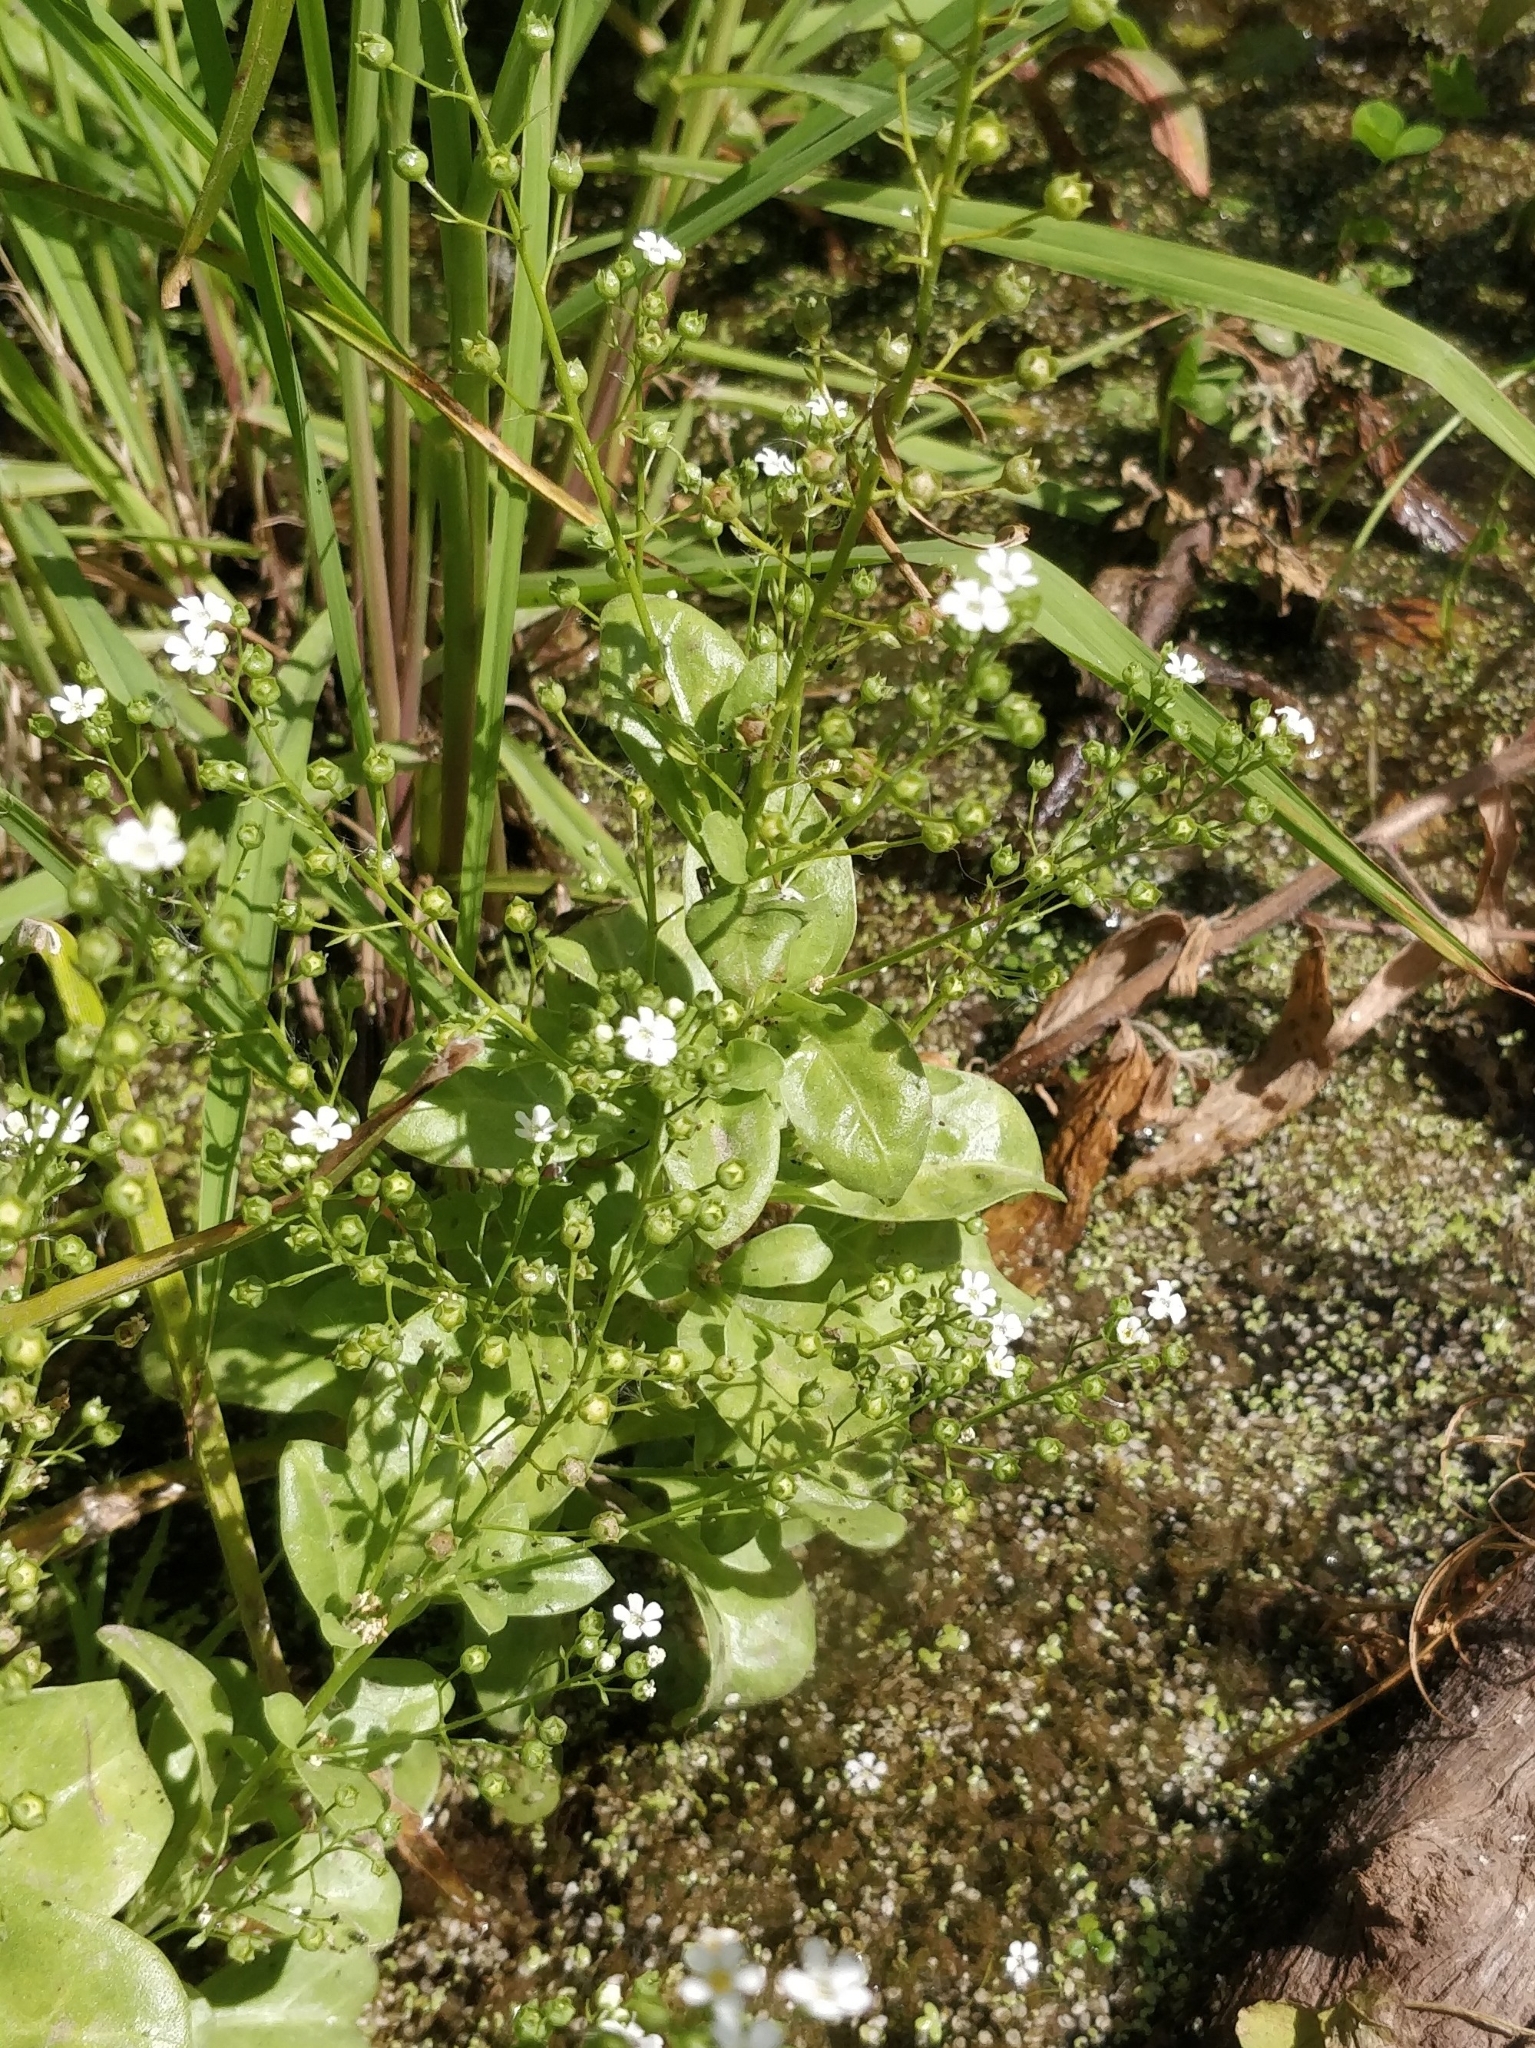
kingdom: Plantae
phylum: Tracheophyta
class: Magnoliopsida
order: Ericales
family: Primulaceae
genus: Samolus
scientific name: Samolus valerandi
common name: Brookweed
